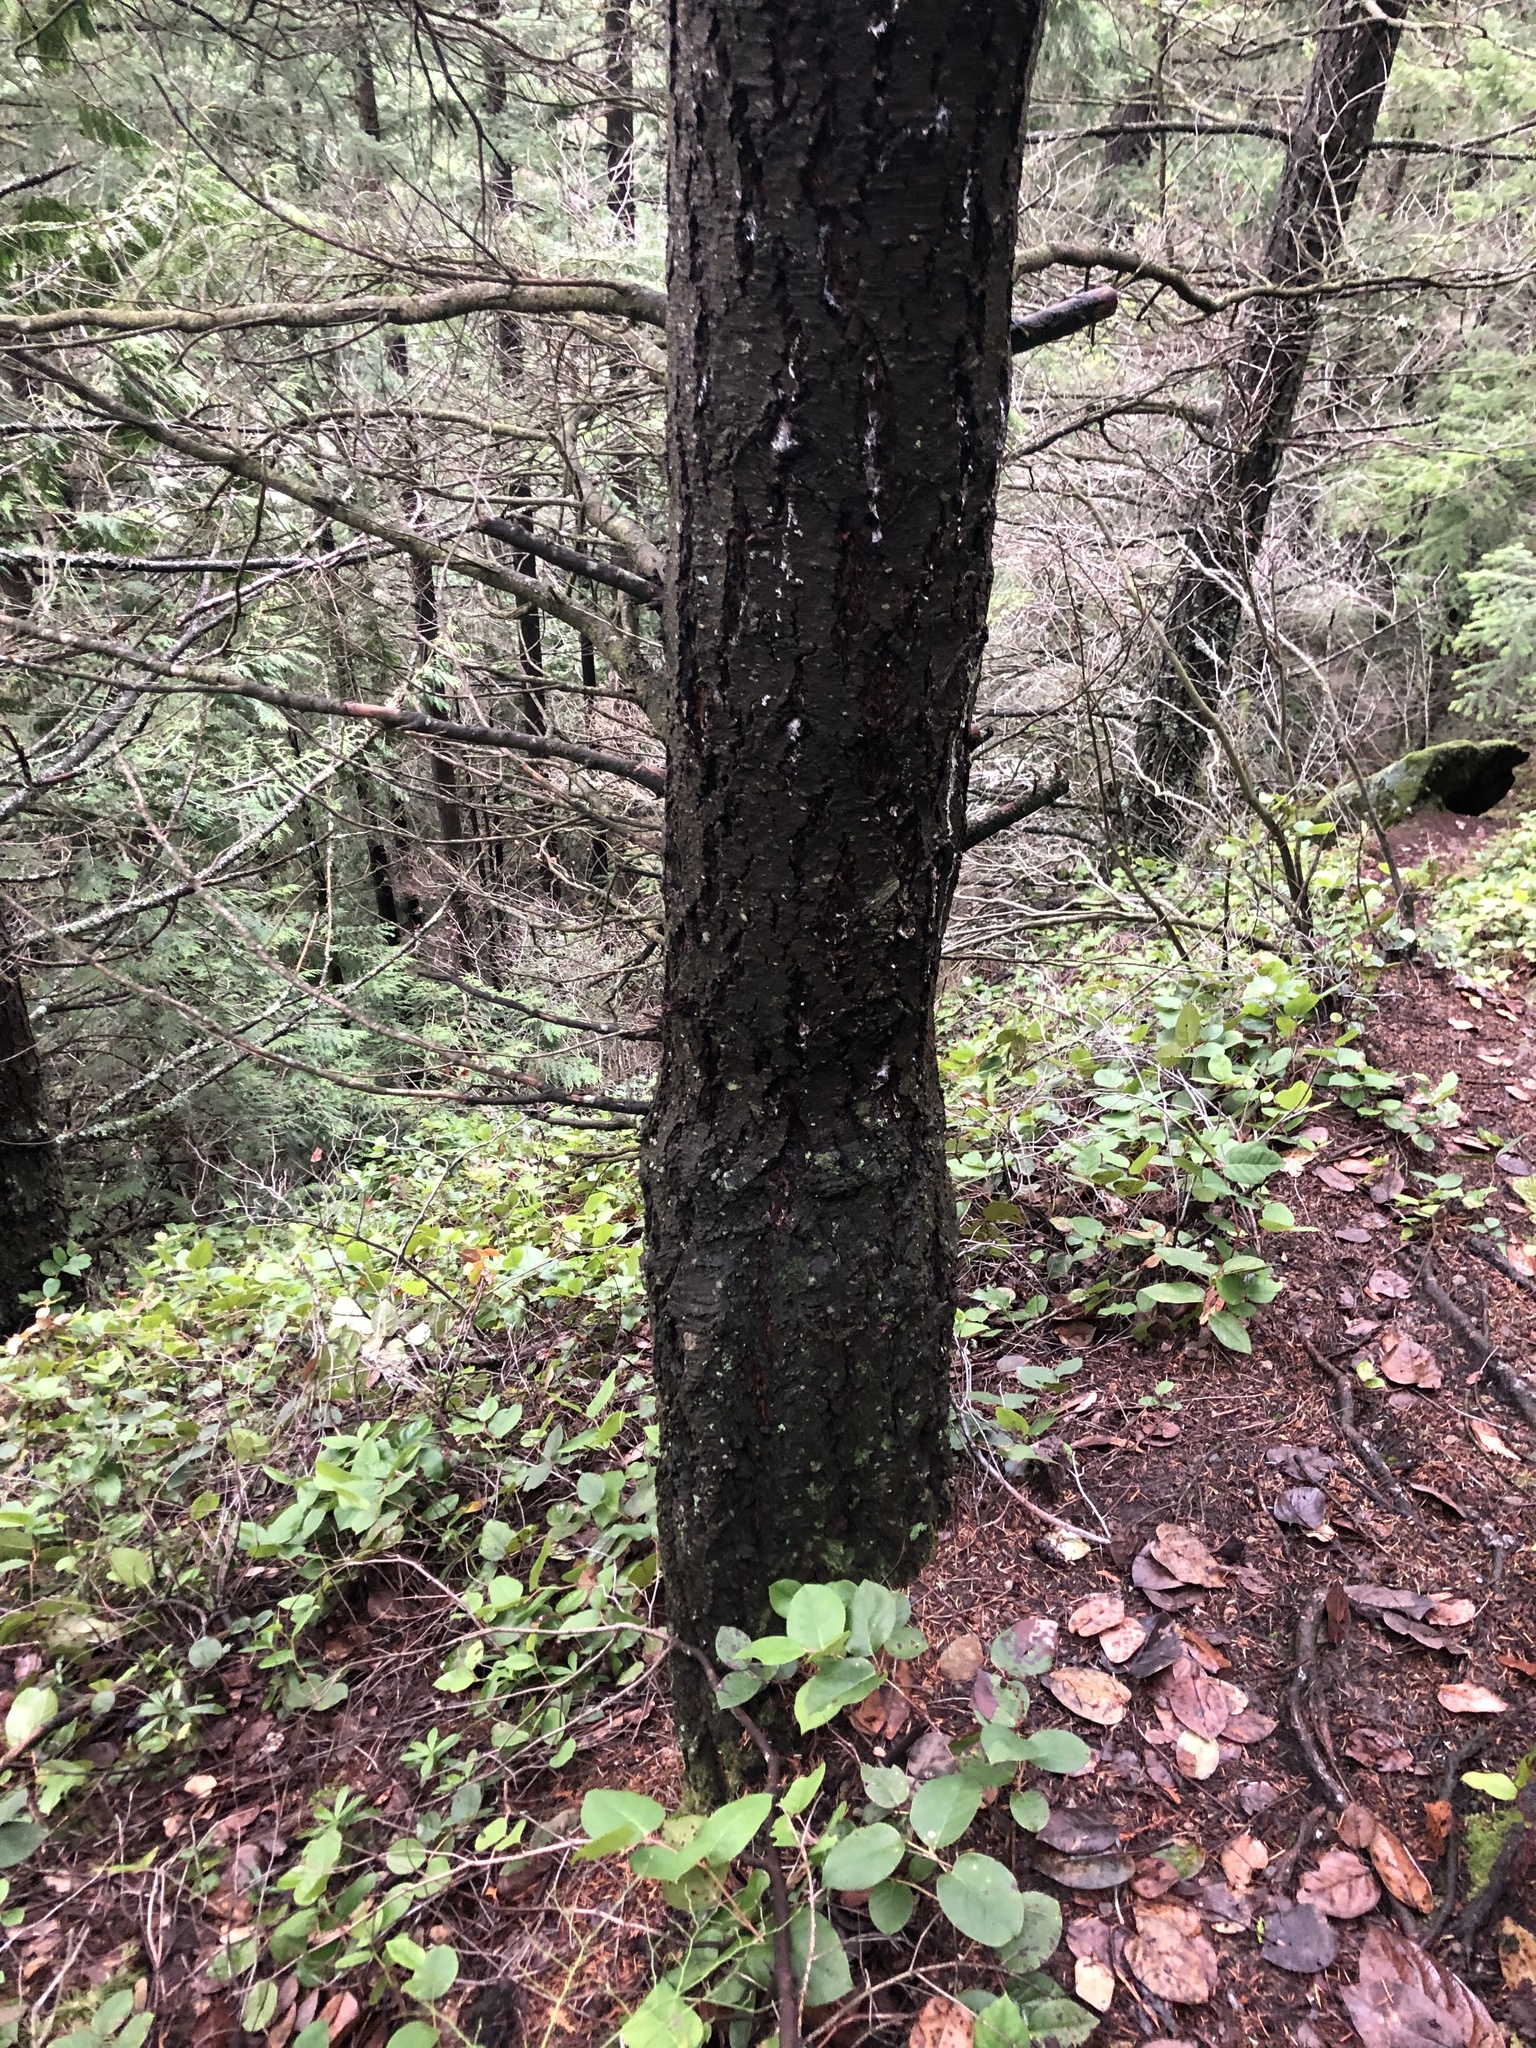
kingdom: Plantae
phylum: Tracheophyta
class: Pinopsida
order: Pinales
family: Pinaceae
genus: Pseudotsuga
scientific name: Pseudotsuga menziesii
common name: Douglas fir
